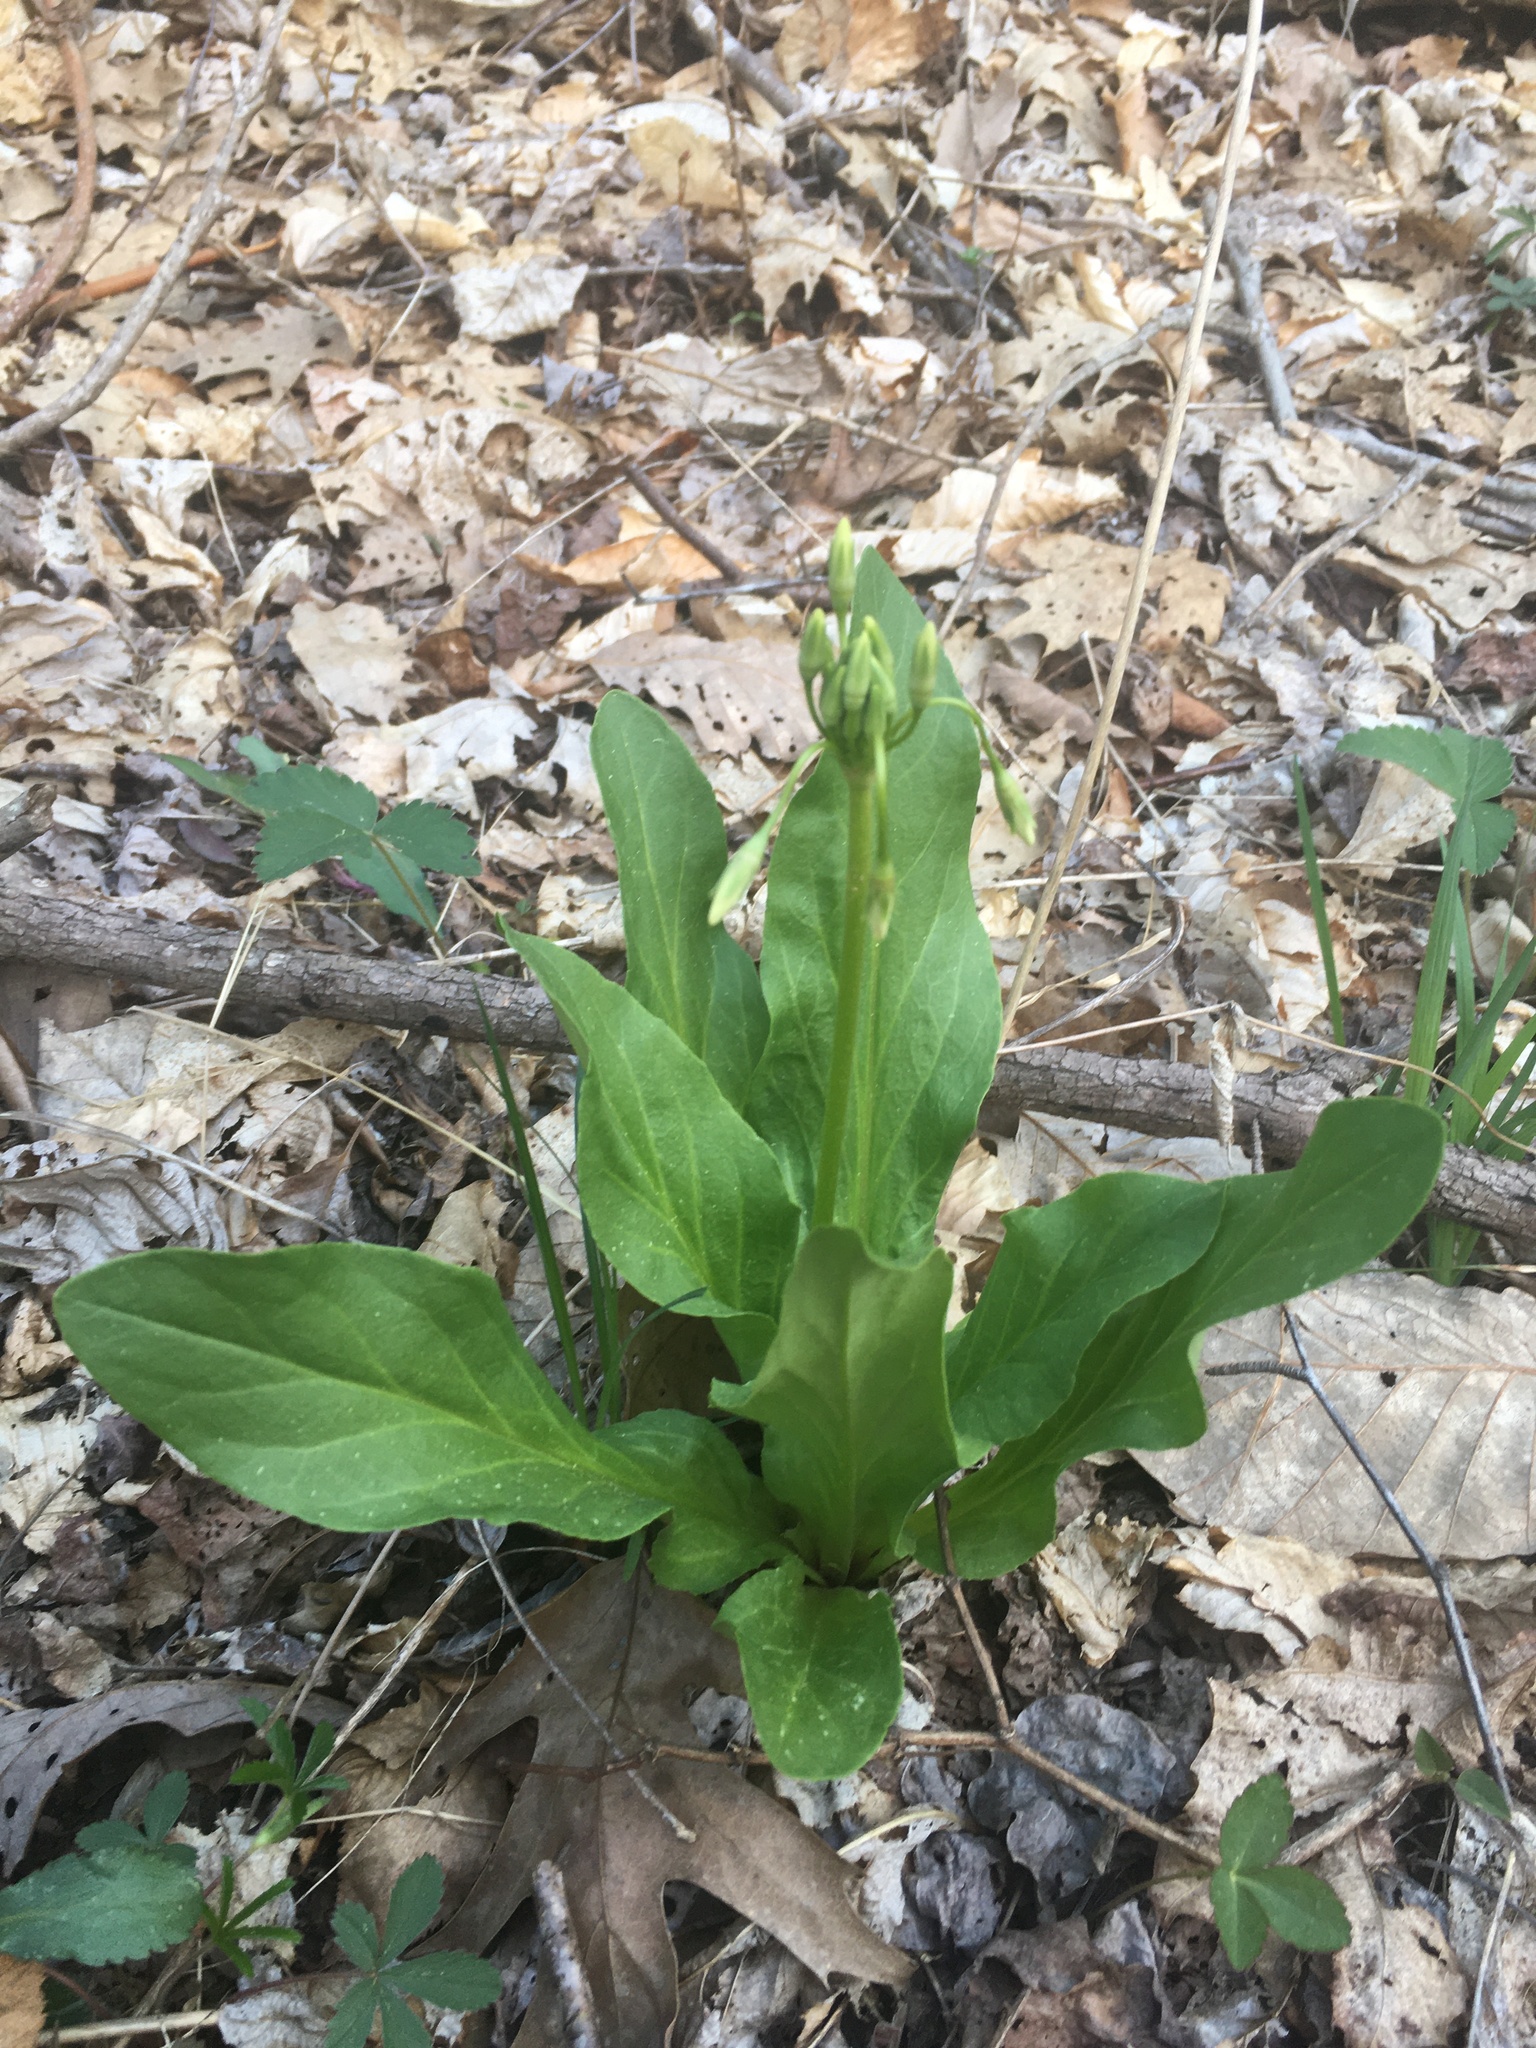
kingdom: Plantae
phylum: Tracheophyta
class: Magnoliopsida
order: Ericales
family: Primulaceae
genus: Dodecatheon
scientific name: Dodecatheon meadia
